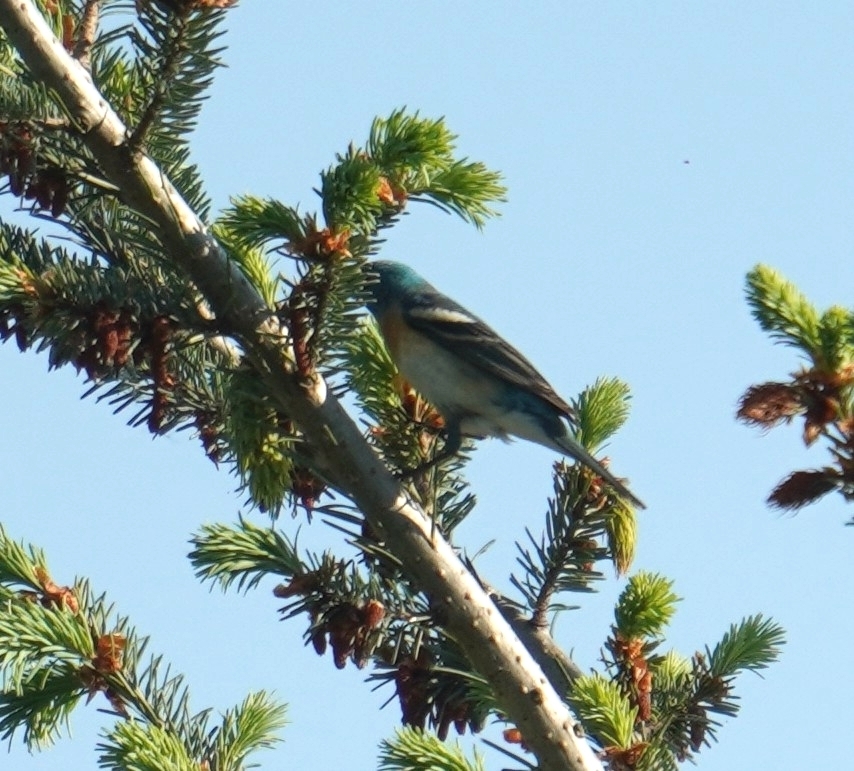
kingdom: Animalia
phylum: Chordata
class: Aves
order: Passeriformes
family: Cardinalidae
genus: Passerina
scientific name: Passerina amoena
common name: Lazuli bunting
